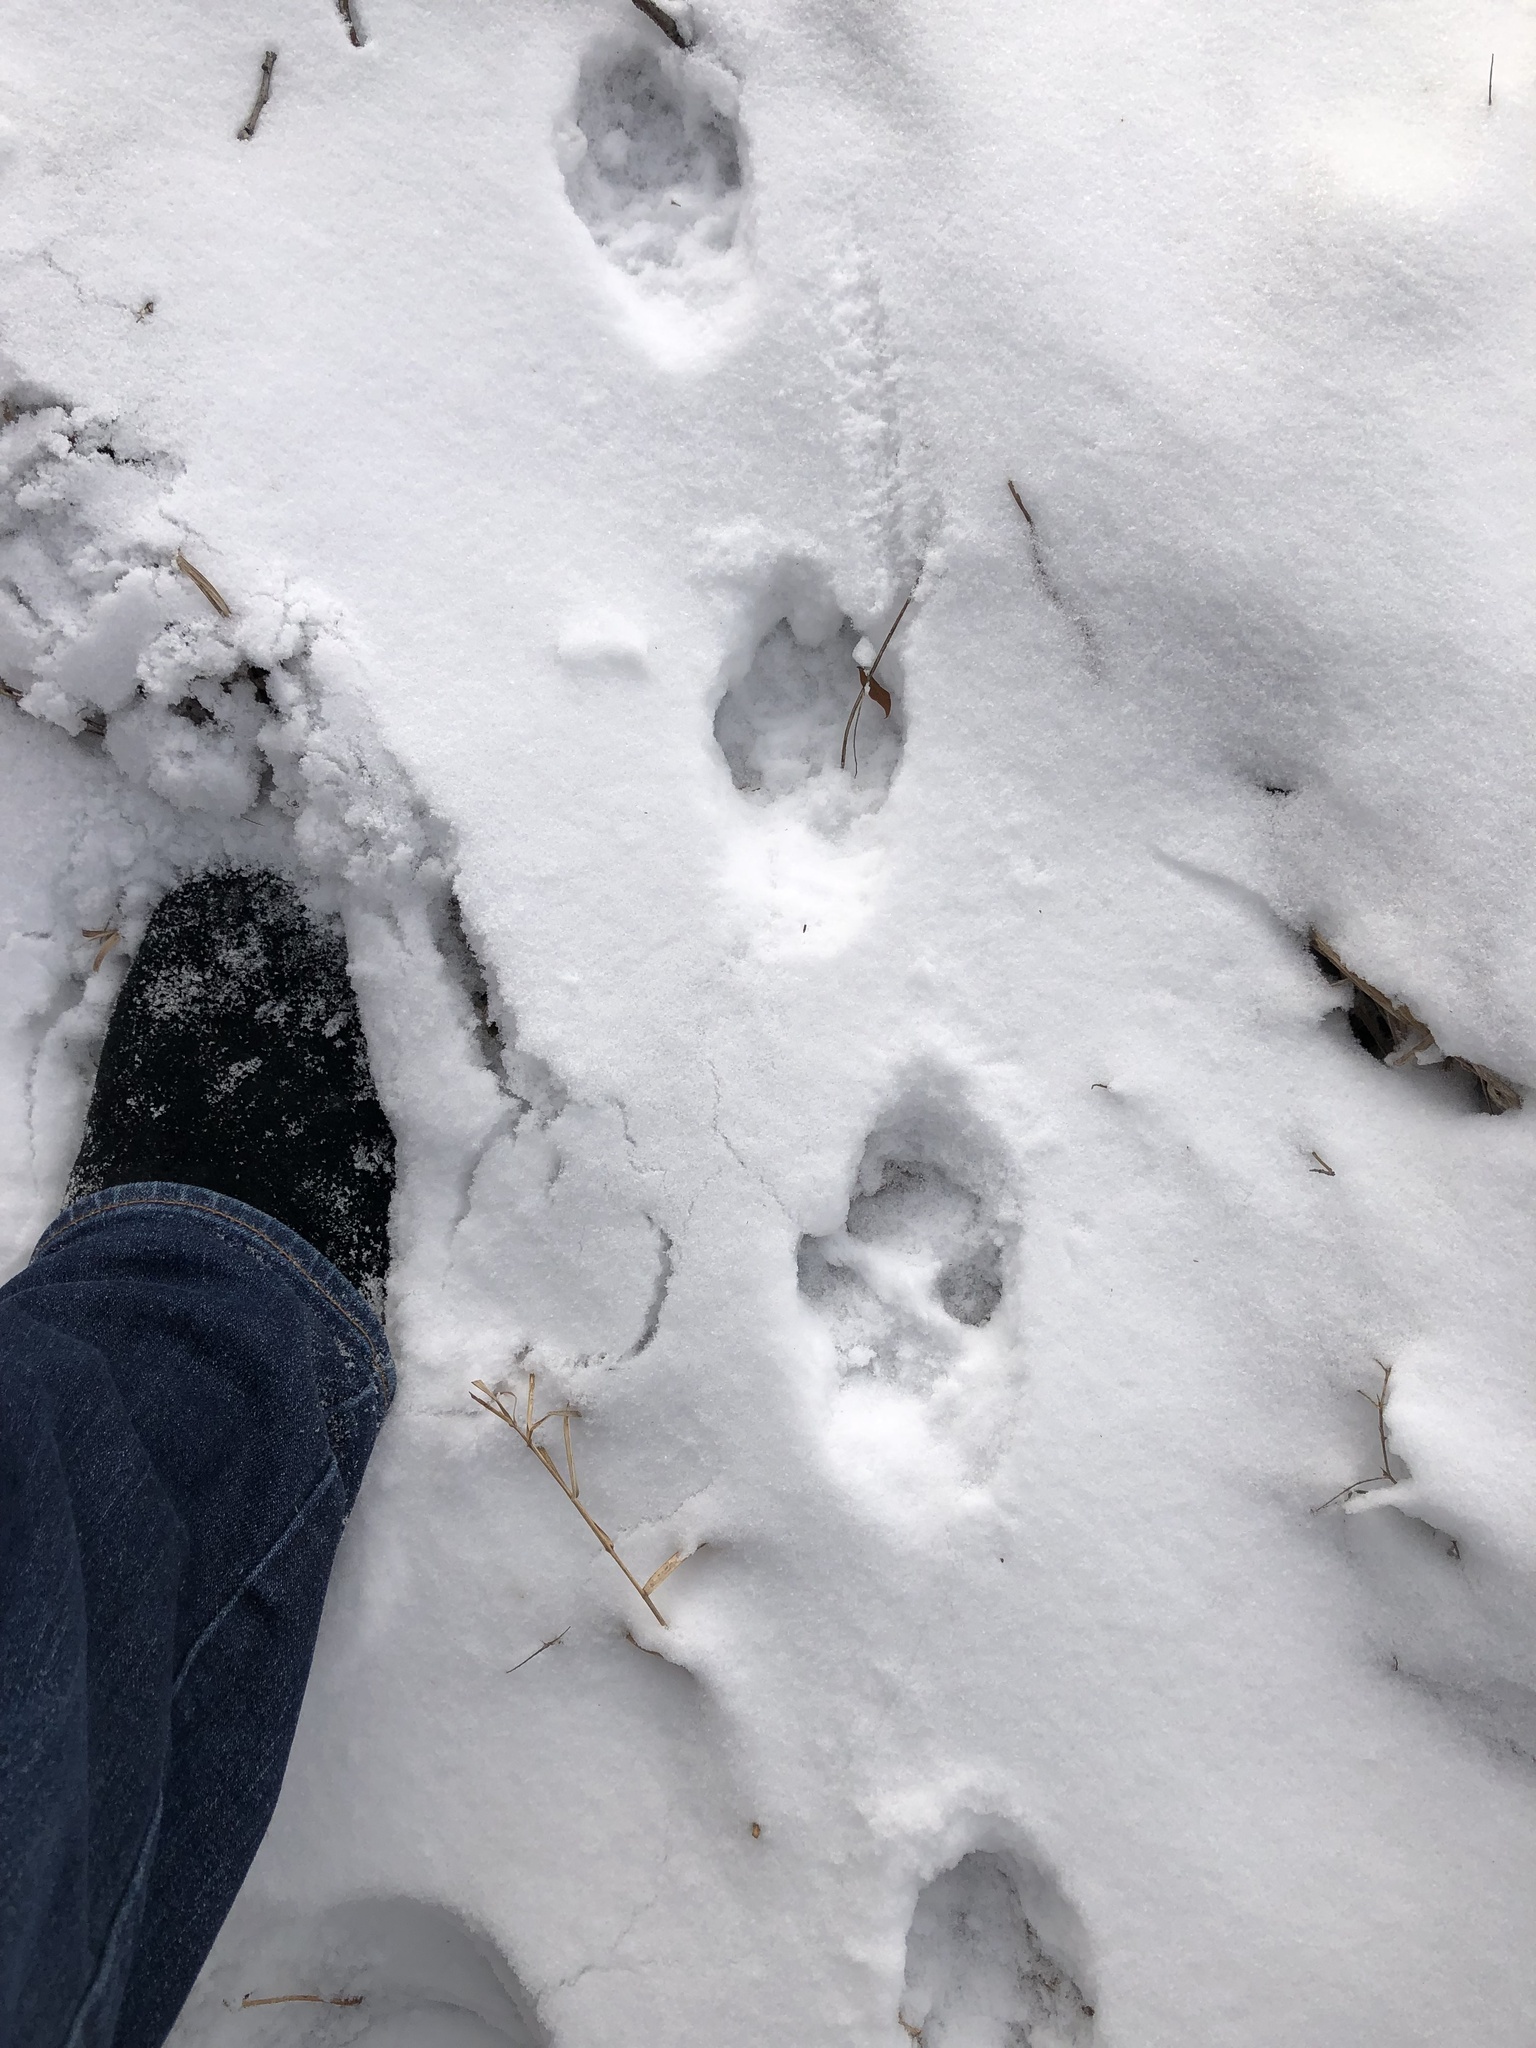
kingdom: Animalia
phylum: Chordata
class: Mammalia
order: Carnivora
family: Canidae
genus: Canis
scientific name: Canis latrans
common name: Coyote
